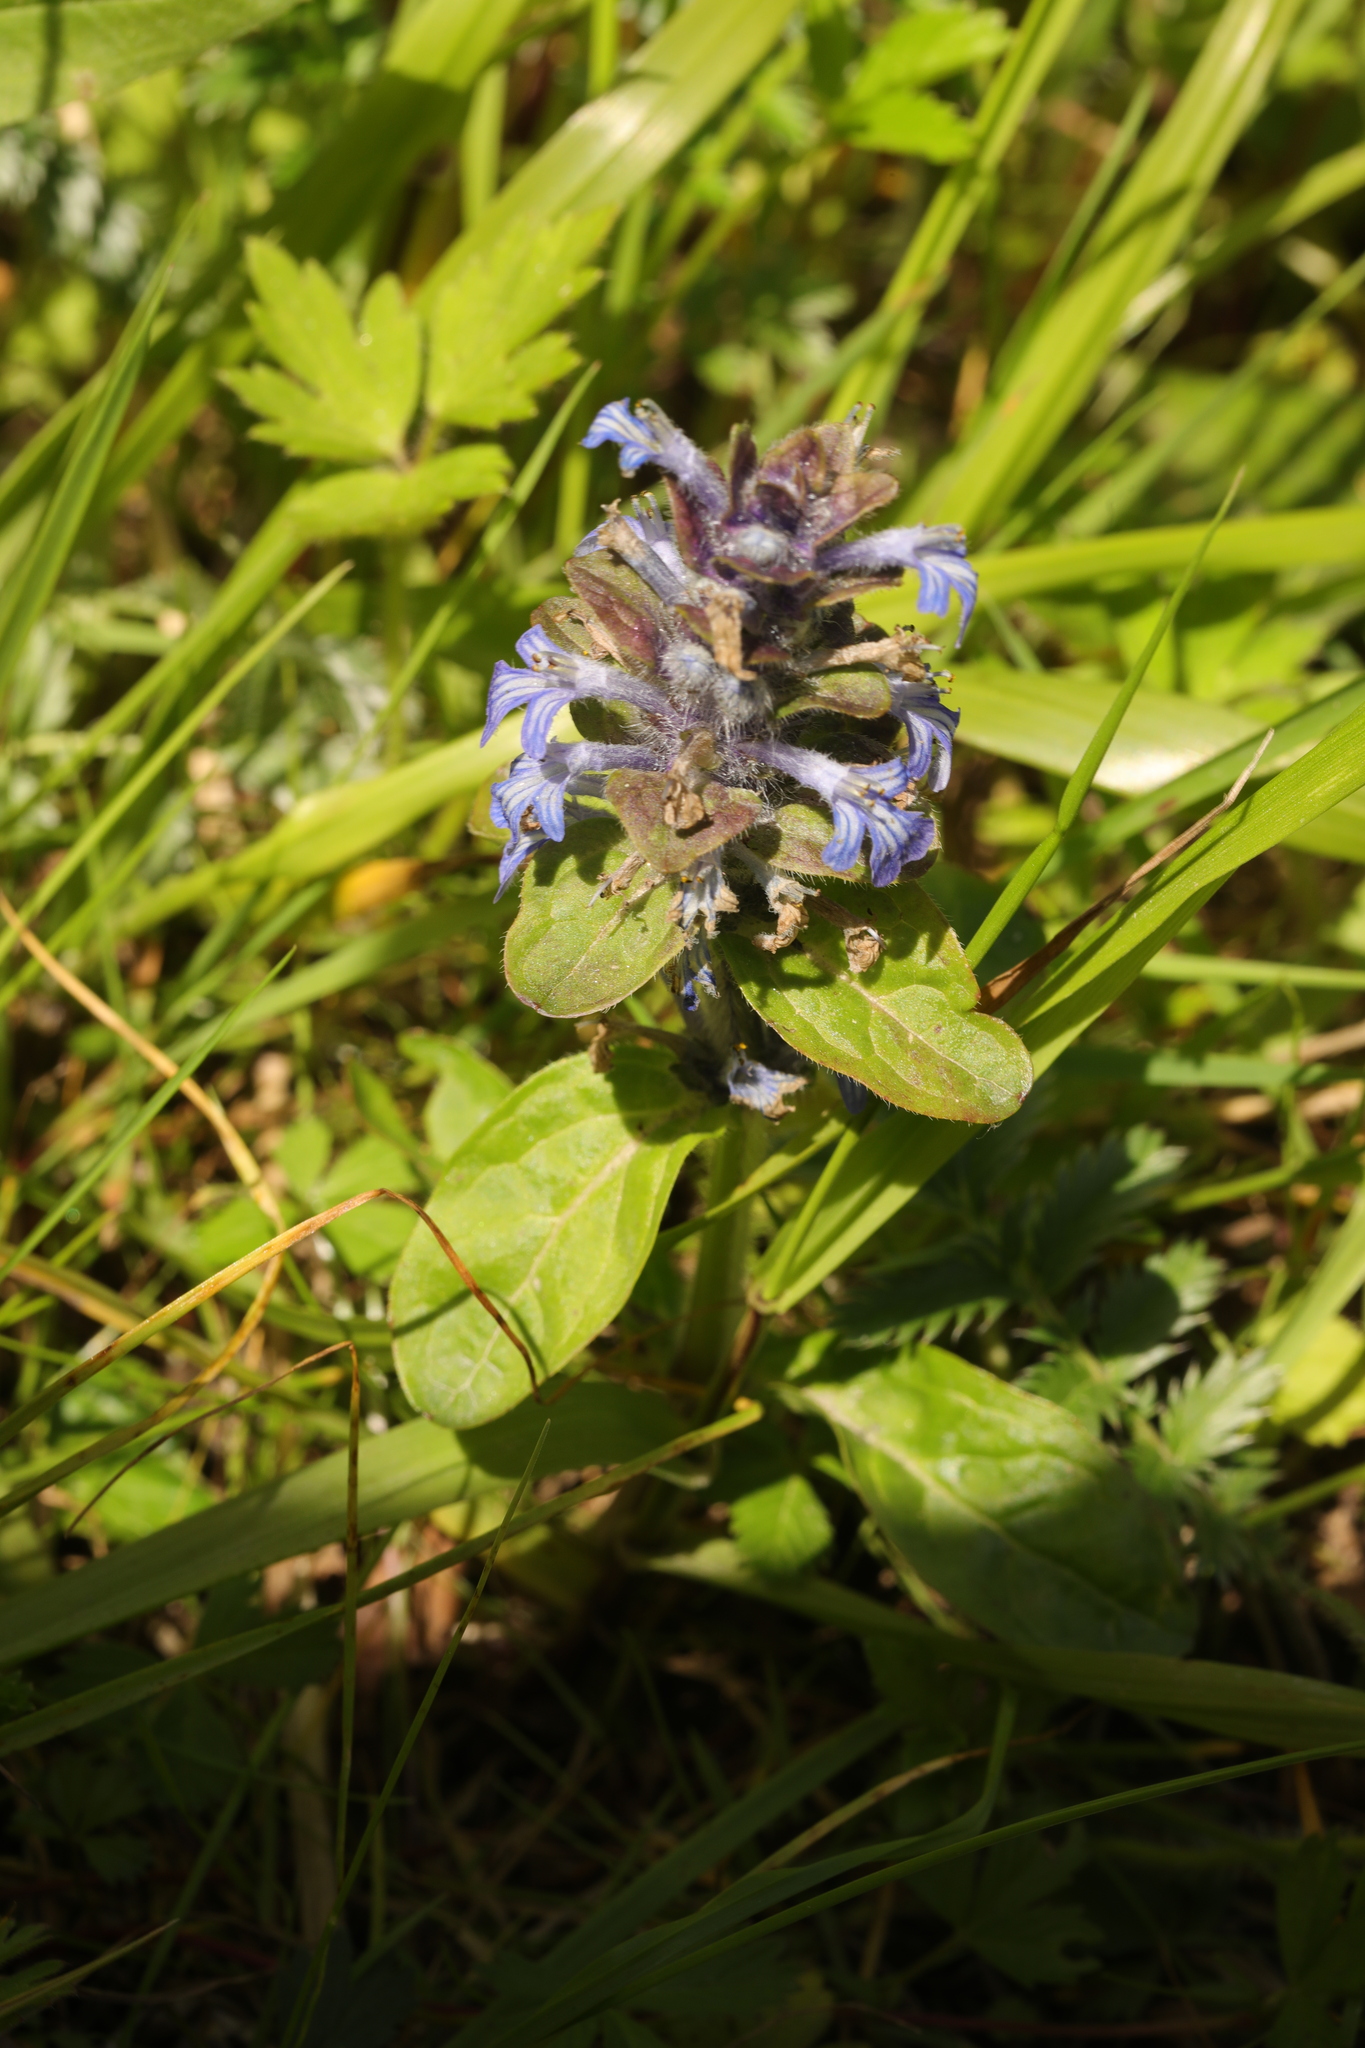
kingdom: Plantae
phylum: Tracheophyta
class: Magnoliopsida
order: Lamiales
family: Lamiaceae
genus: Ajuga
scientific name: Ajuga reptans
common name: Bugle
